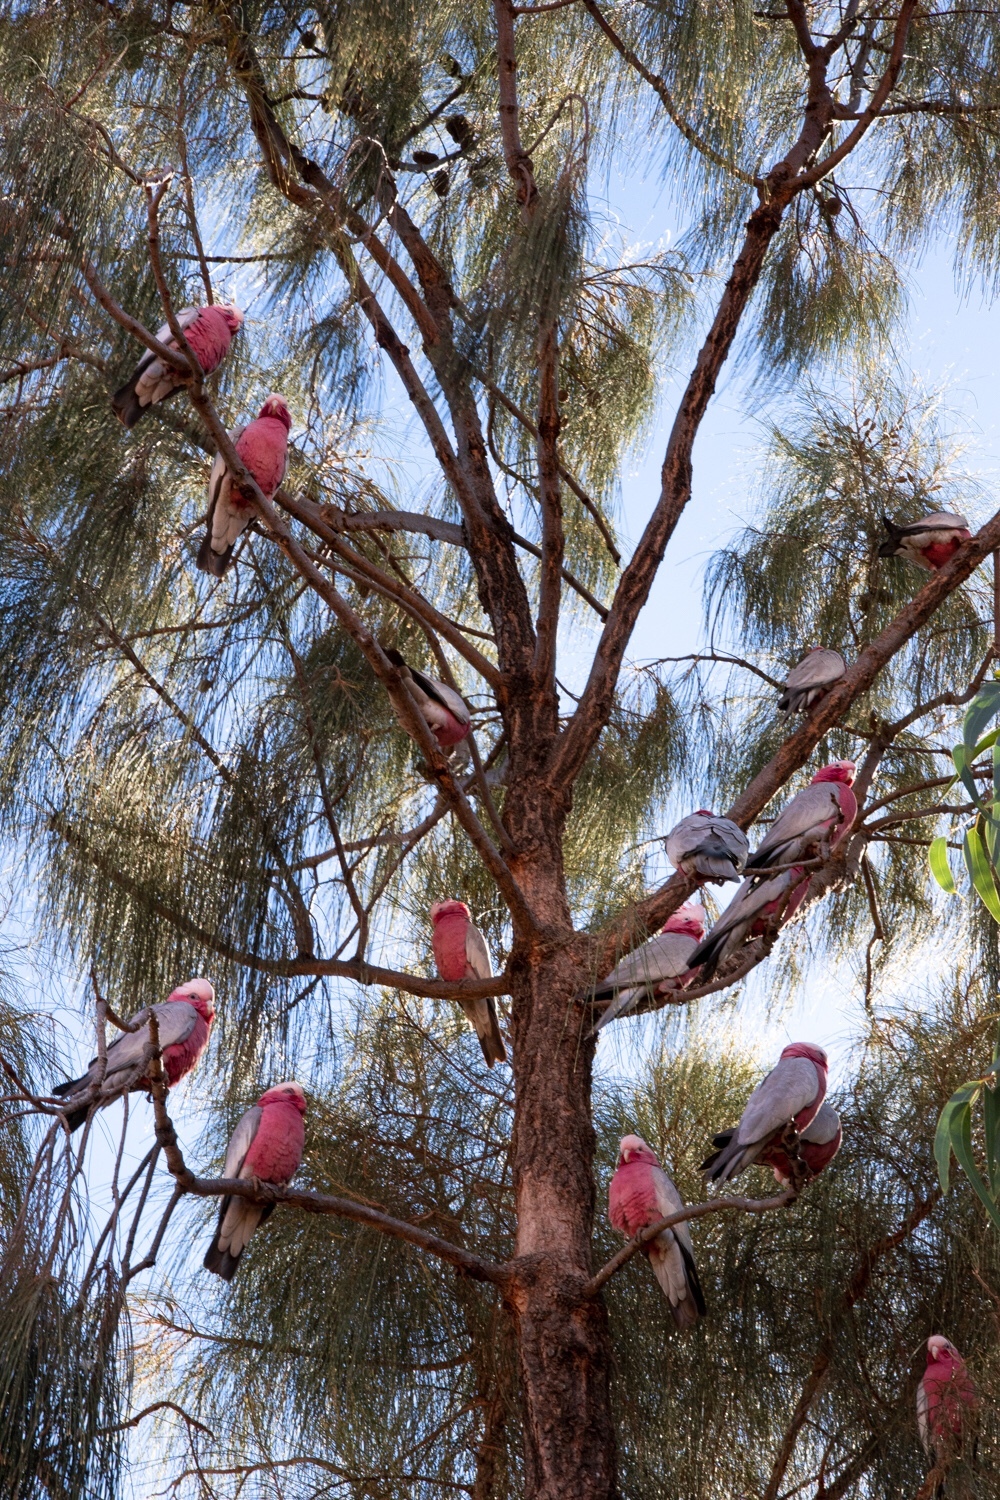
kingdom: Animalia
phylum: Chordata
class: Aves
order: Psittaciformes
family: Psittacidae
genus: Eolophus
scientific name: Eolophus roseicapilla
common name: Galah
